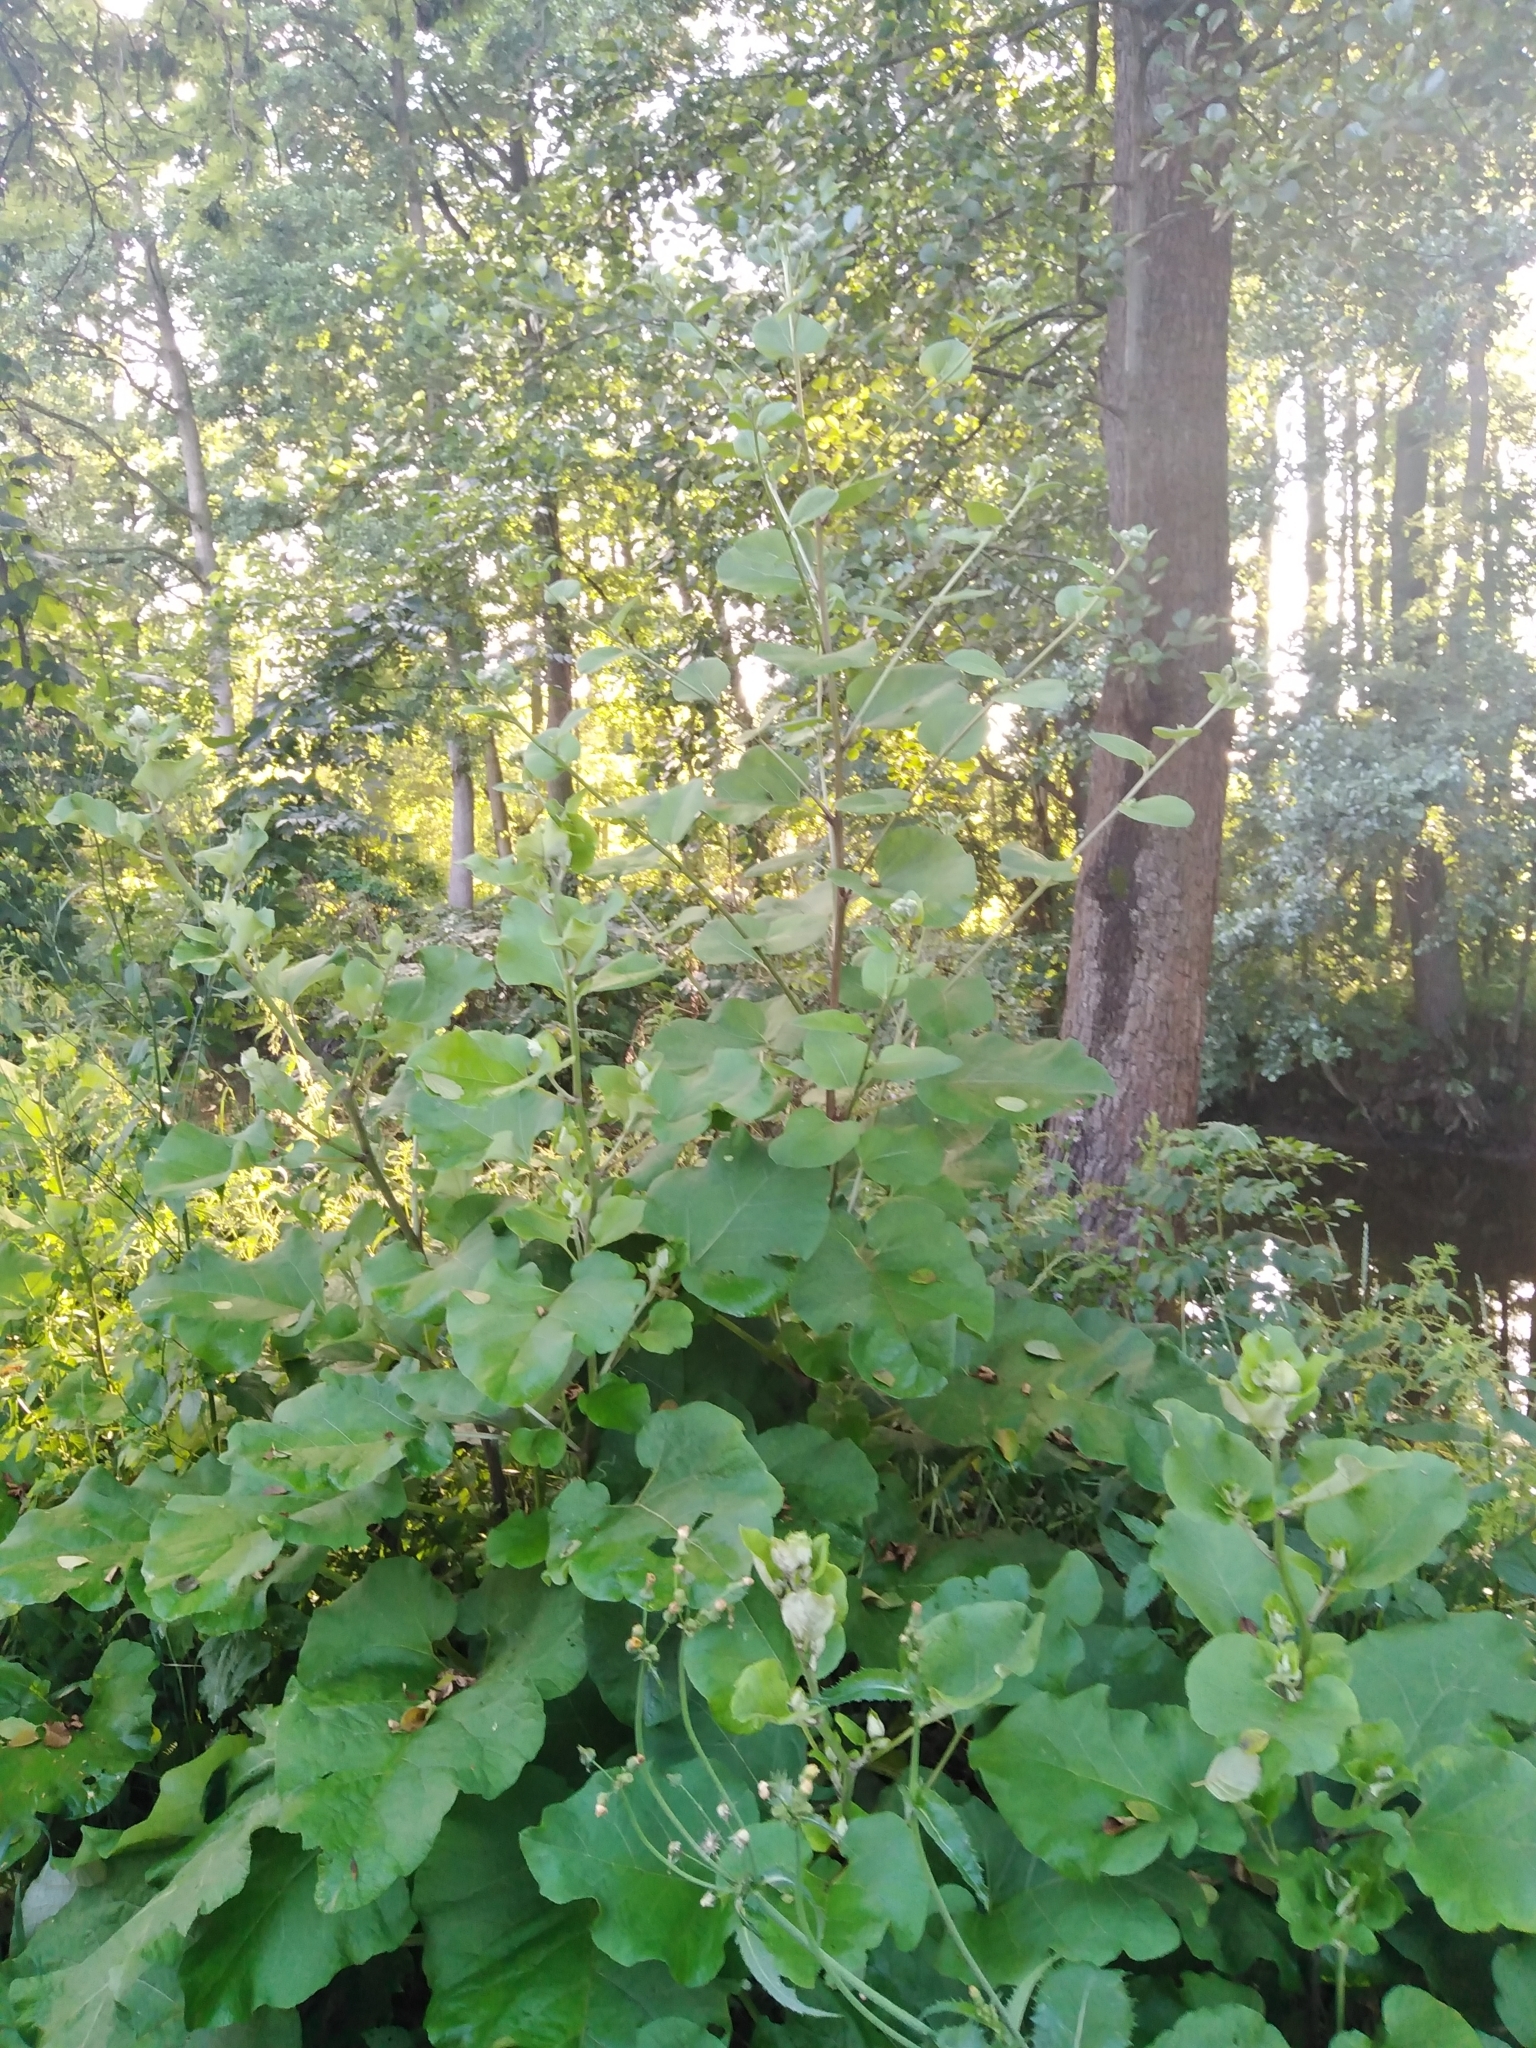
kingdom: Plantae
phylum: Tracheophyta
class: Magnoliopsida
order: Asterales
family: Asteraceae
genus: Arctium
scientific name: Arctium tomentosum
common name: Woolly burdock
